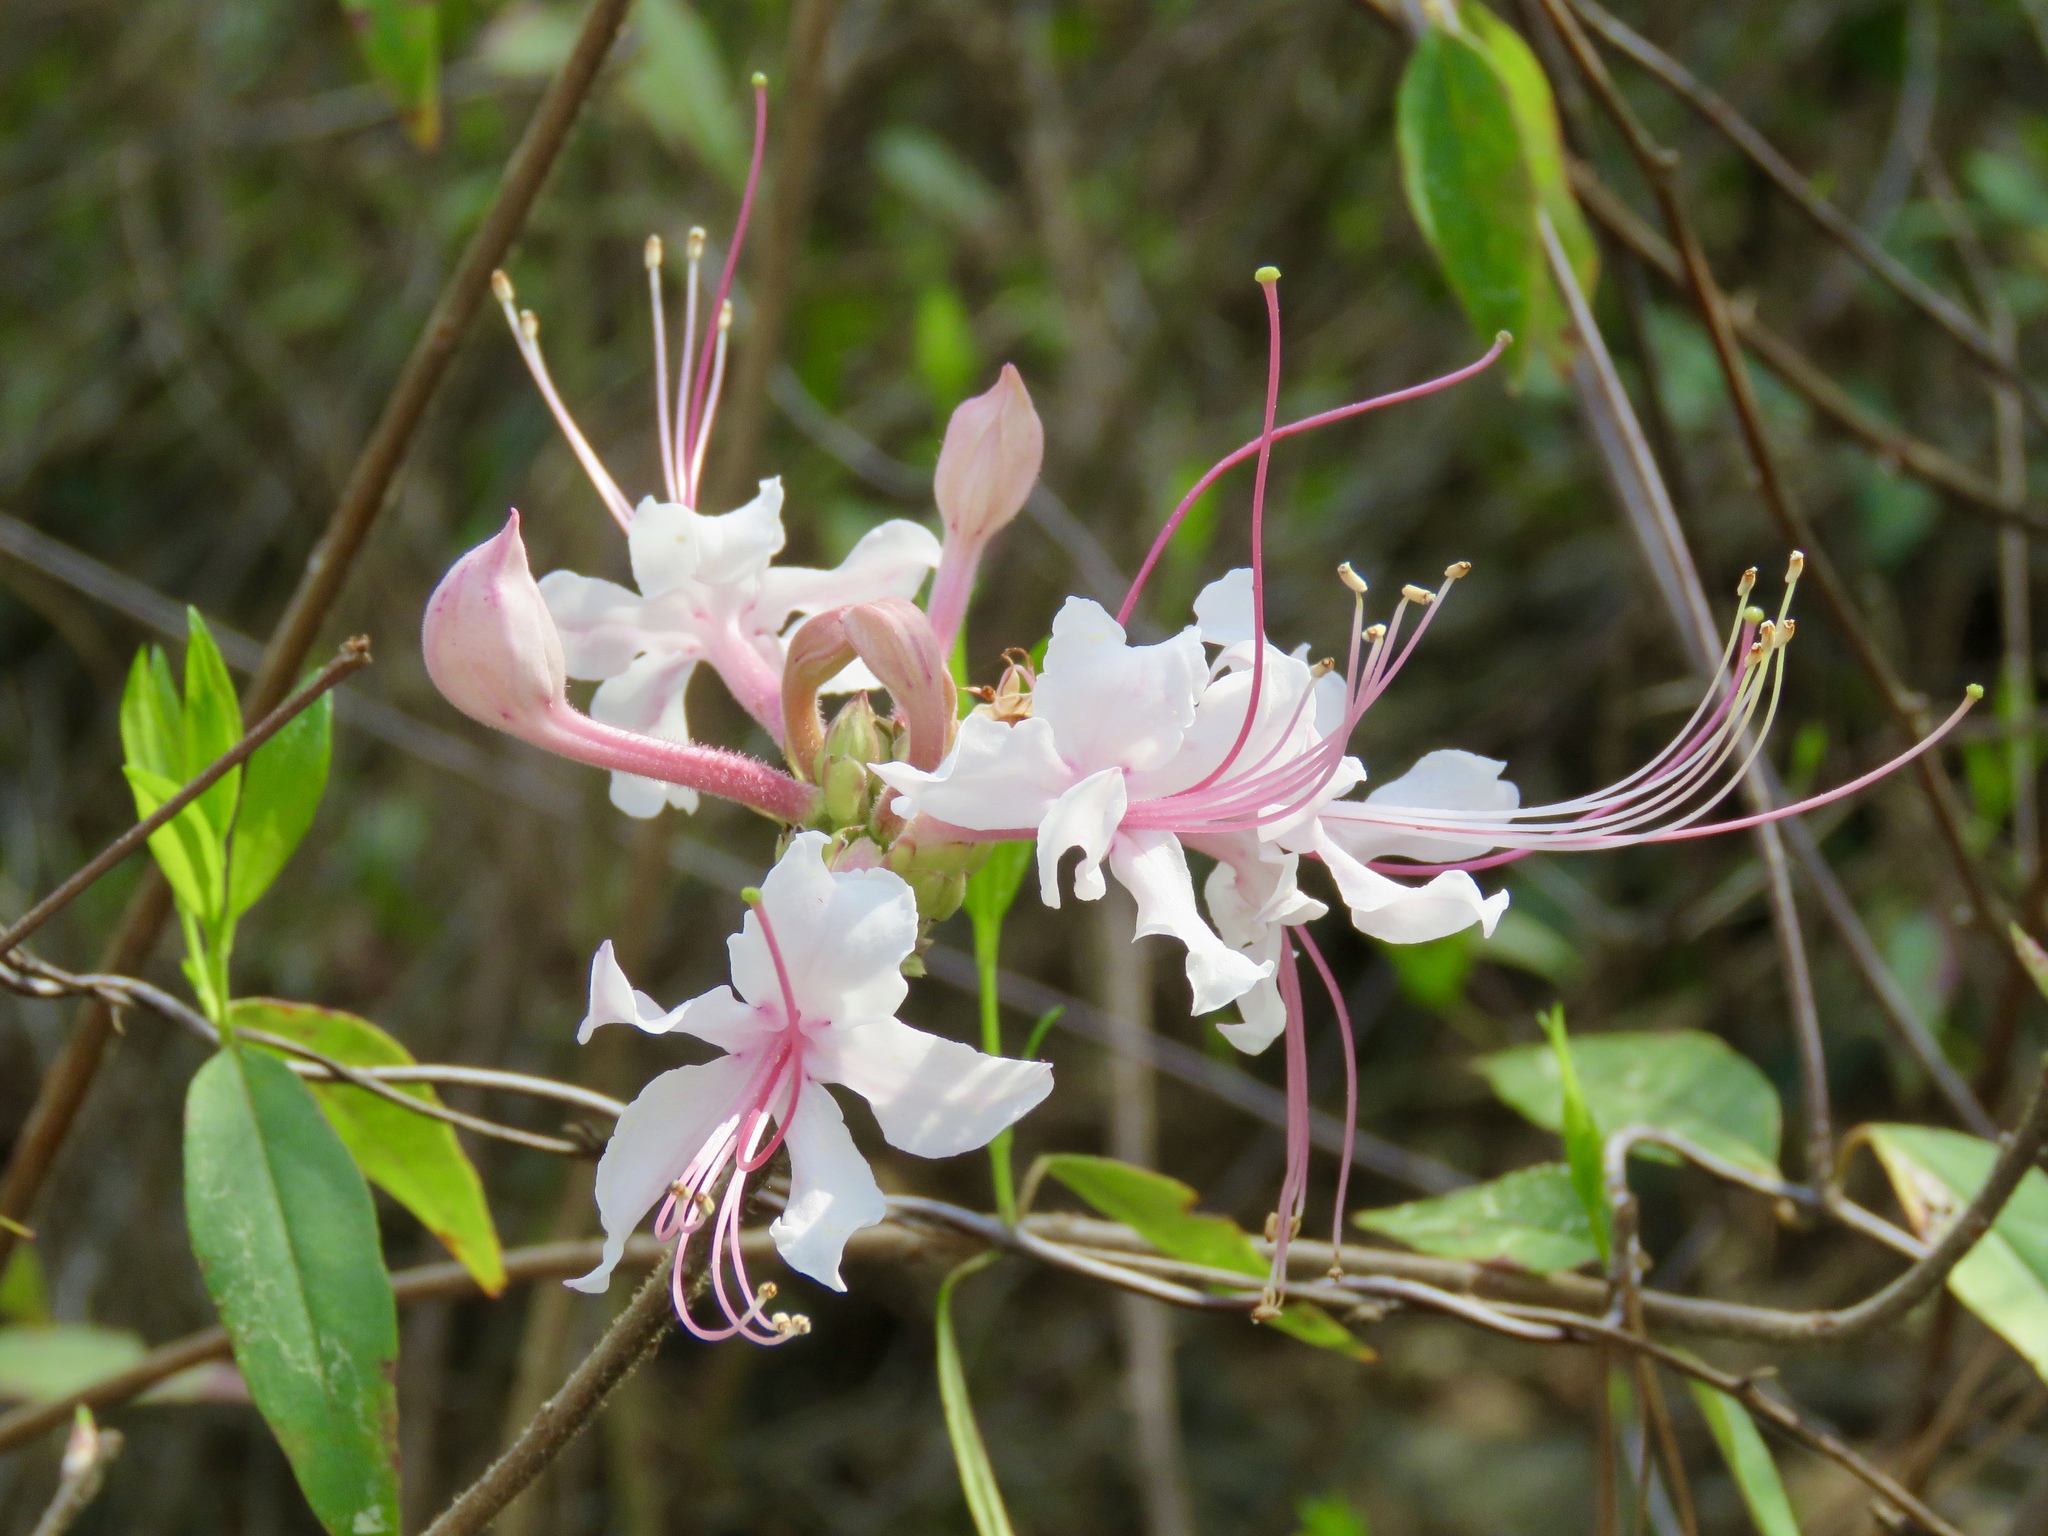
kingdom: Plantae
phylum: Tracheophyta
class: Magnoliopsida
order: Ericales
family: Ericaceae
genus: Rhododendron
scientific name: Rhododendron canescens
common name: Mountain azalea
